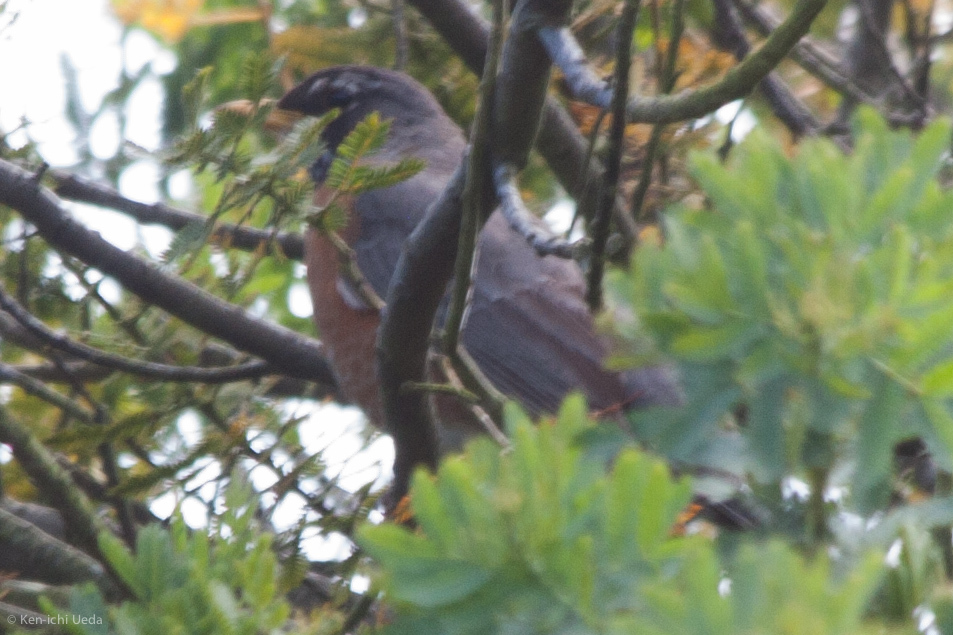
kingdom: Animalia
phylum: Chordata
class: Aves
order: Passeriformes
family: Turdidae
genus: Turdus
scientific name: Turdus migratorius
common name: American robin
